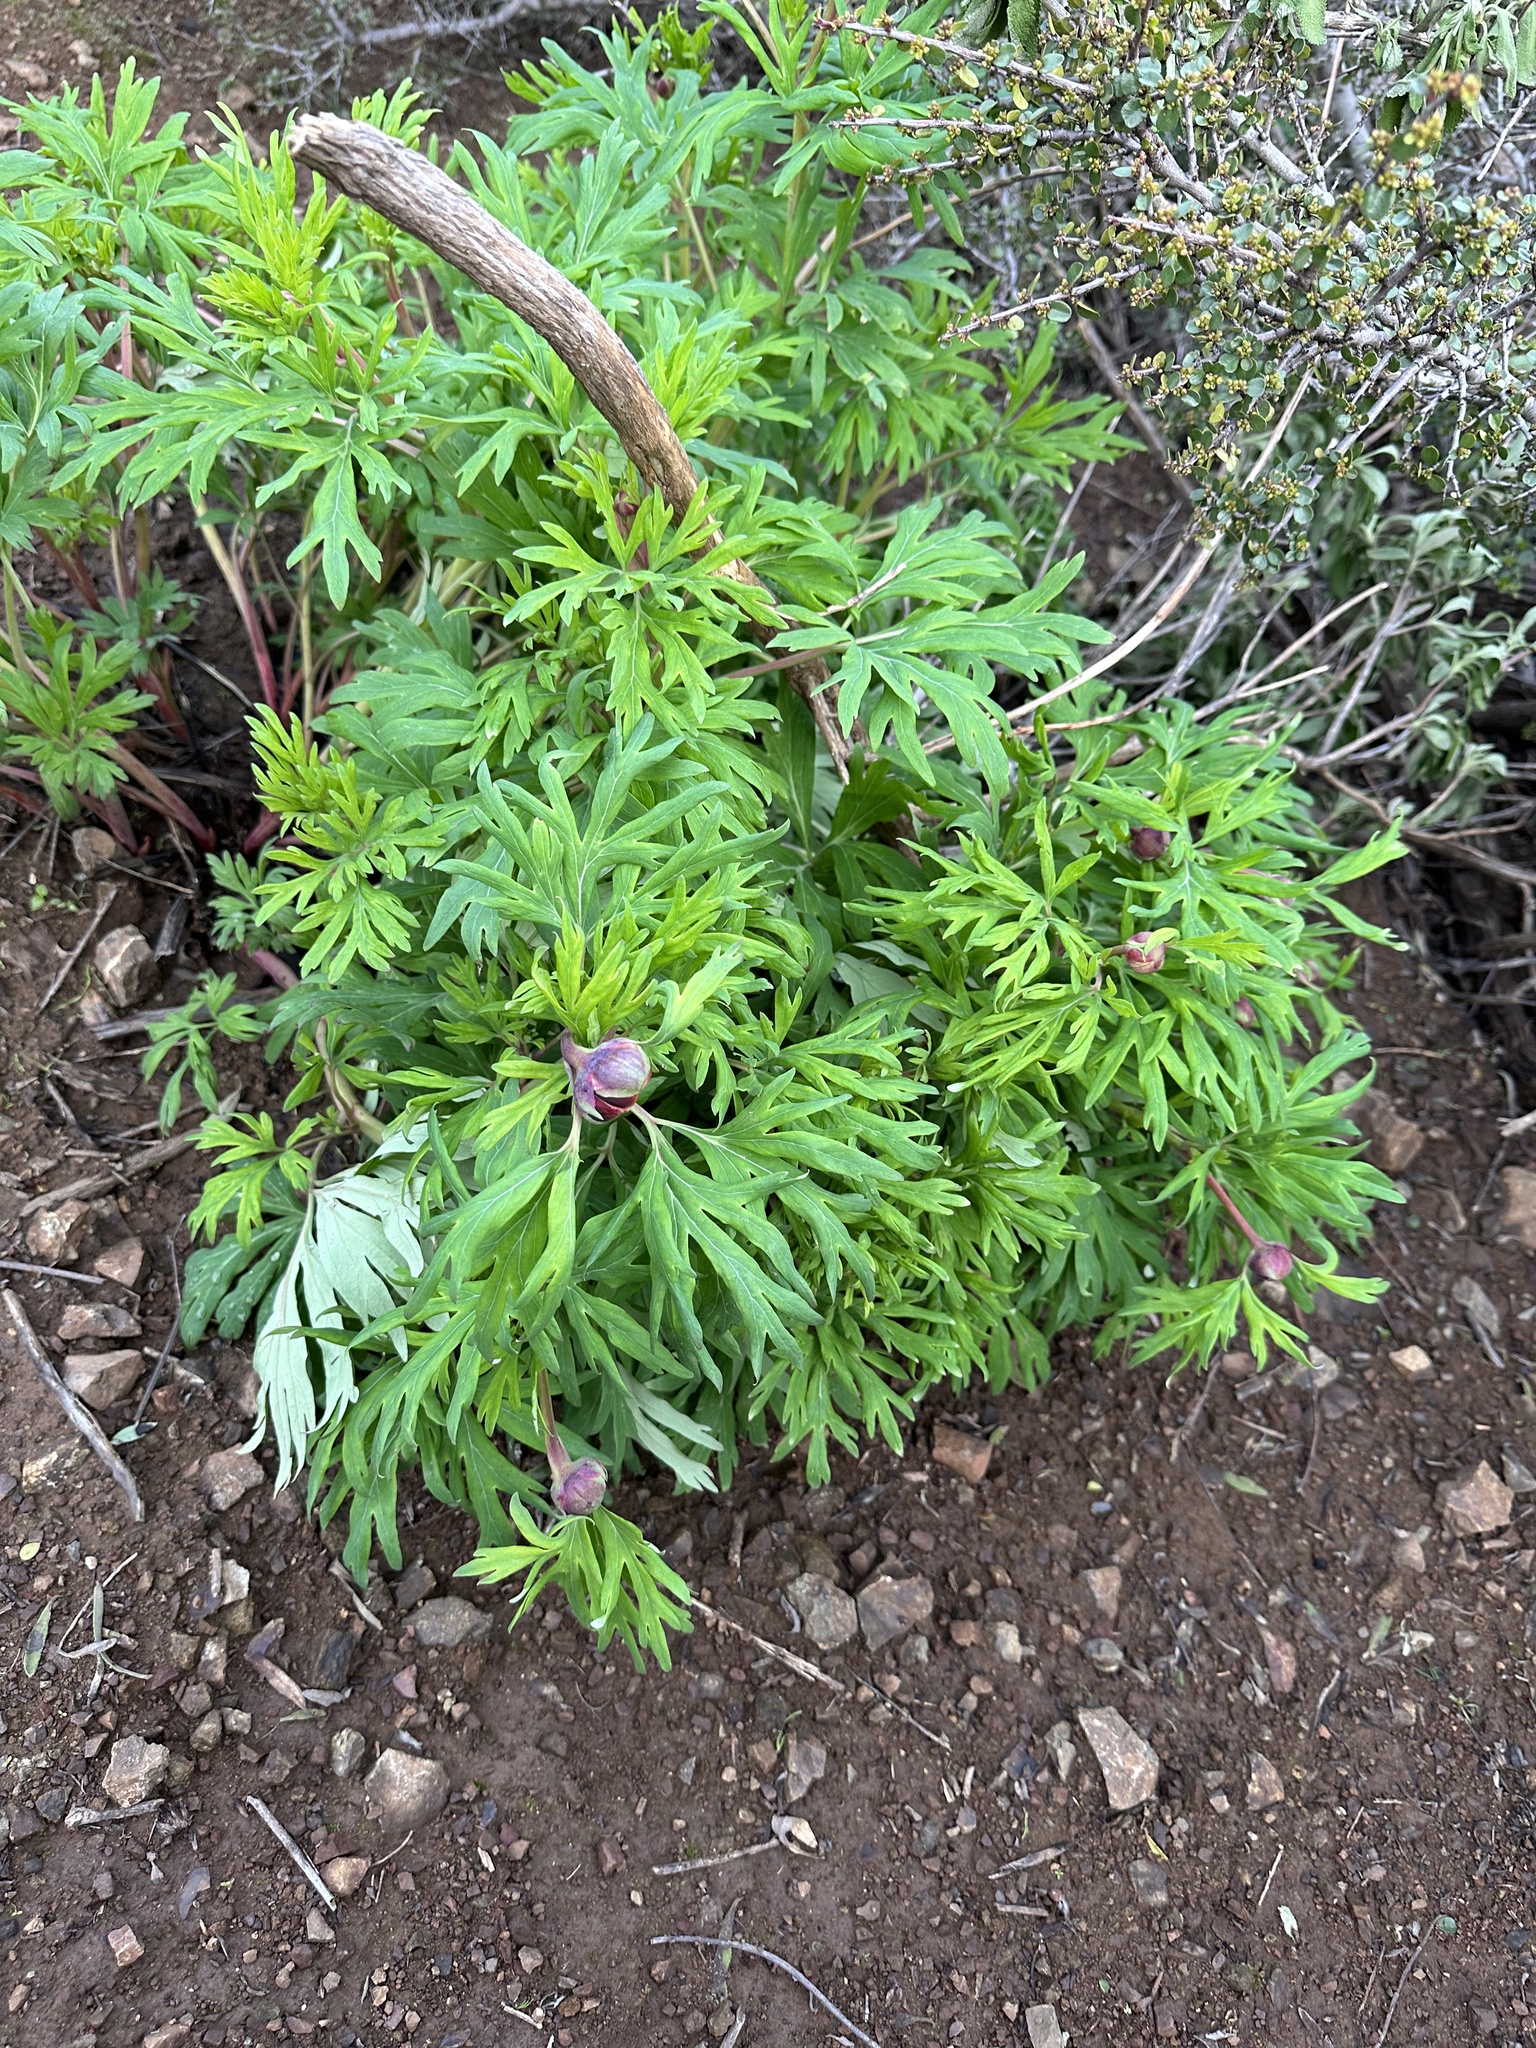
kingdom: Plantae
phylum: Tracheophyta
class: Magnoliopsida
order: Saxifragales
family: Paeoniaceae
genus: Paeonia
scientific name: Paeonia californica
